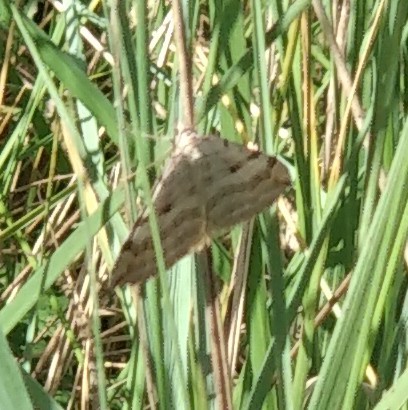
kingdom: Animalia
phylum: Arthropoda
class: Insecta
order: Lepidoptera
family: Geometridae
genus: Aplocera
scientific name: Aplocera plagiata
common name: Treble-bar
